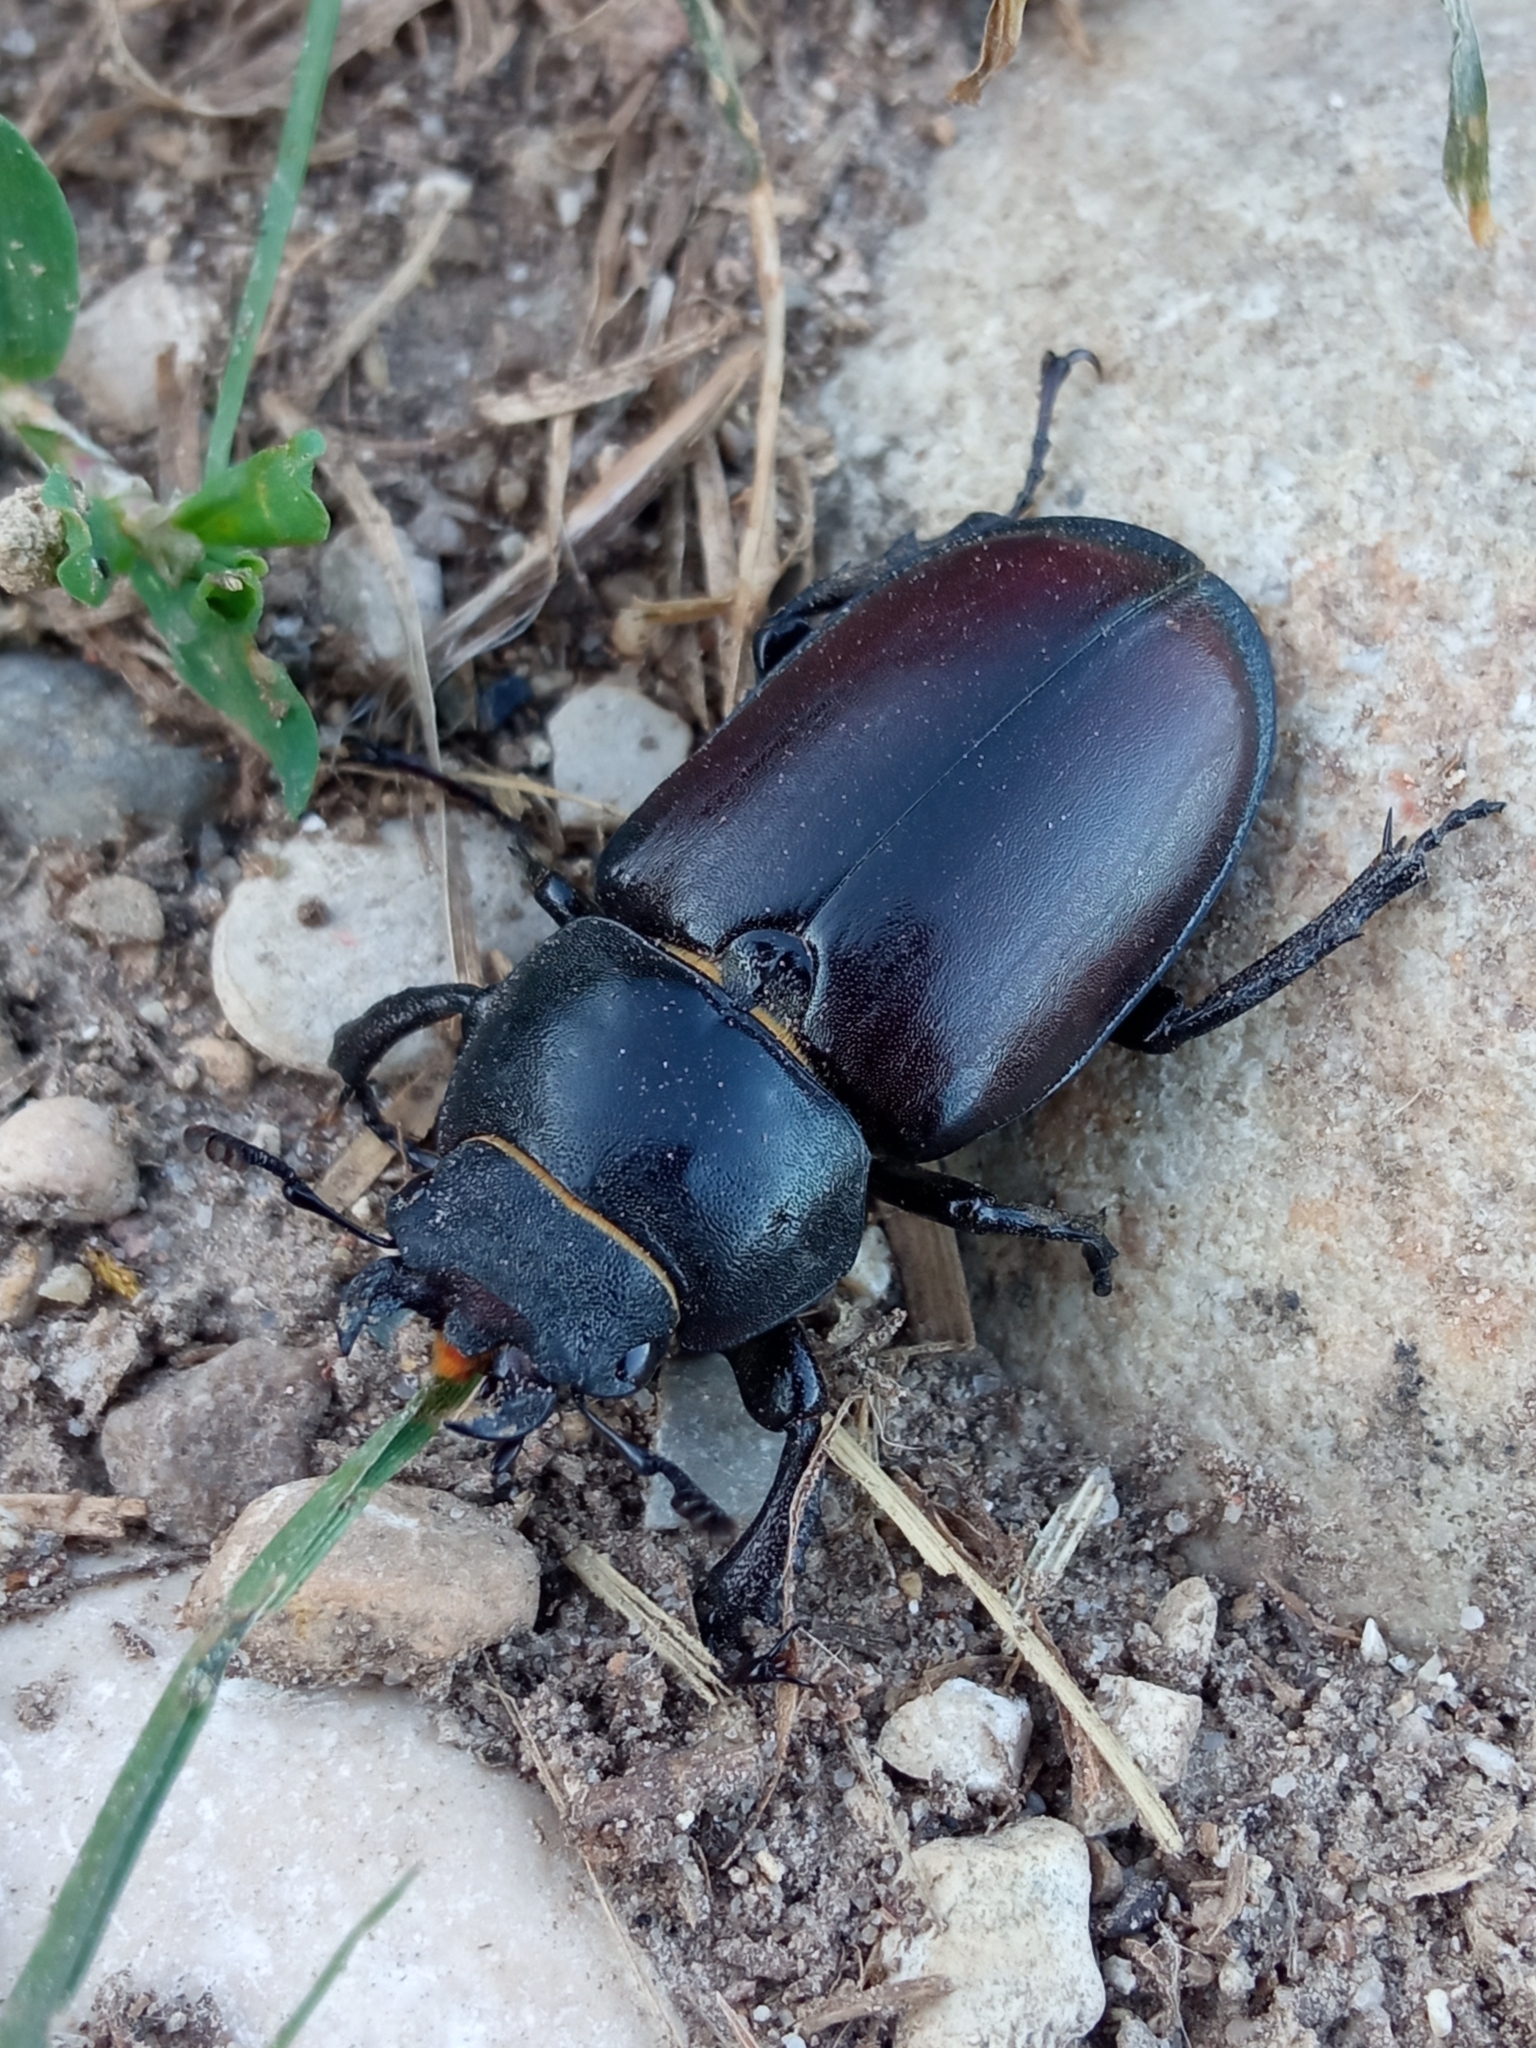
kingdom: Animalia
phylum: Arthropoda
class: Insecta
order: Coleoptera
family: Lucanidae
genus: Lucanus
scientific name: Lucanus cervus
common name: Stag beetle
